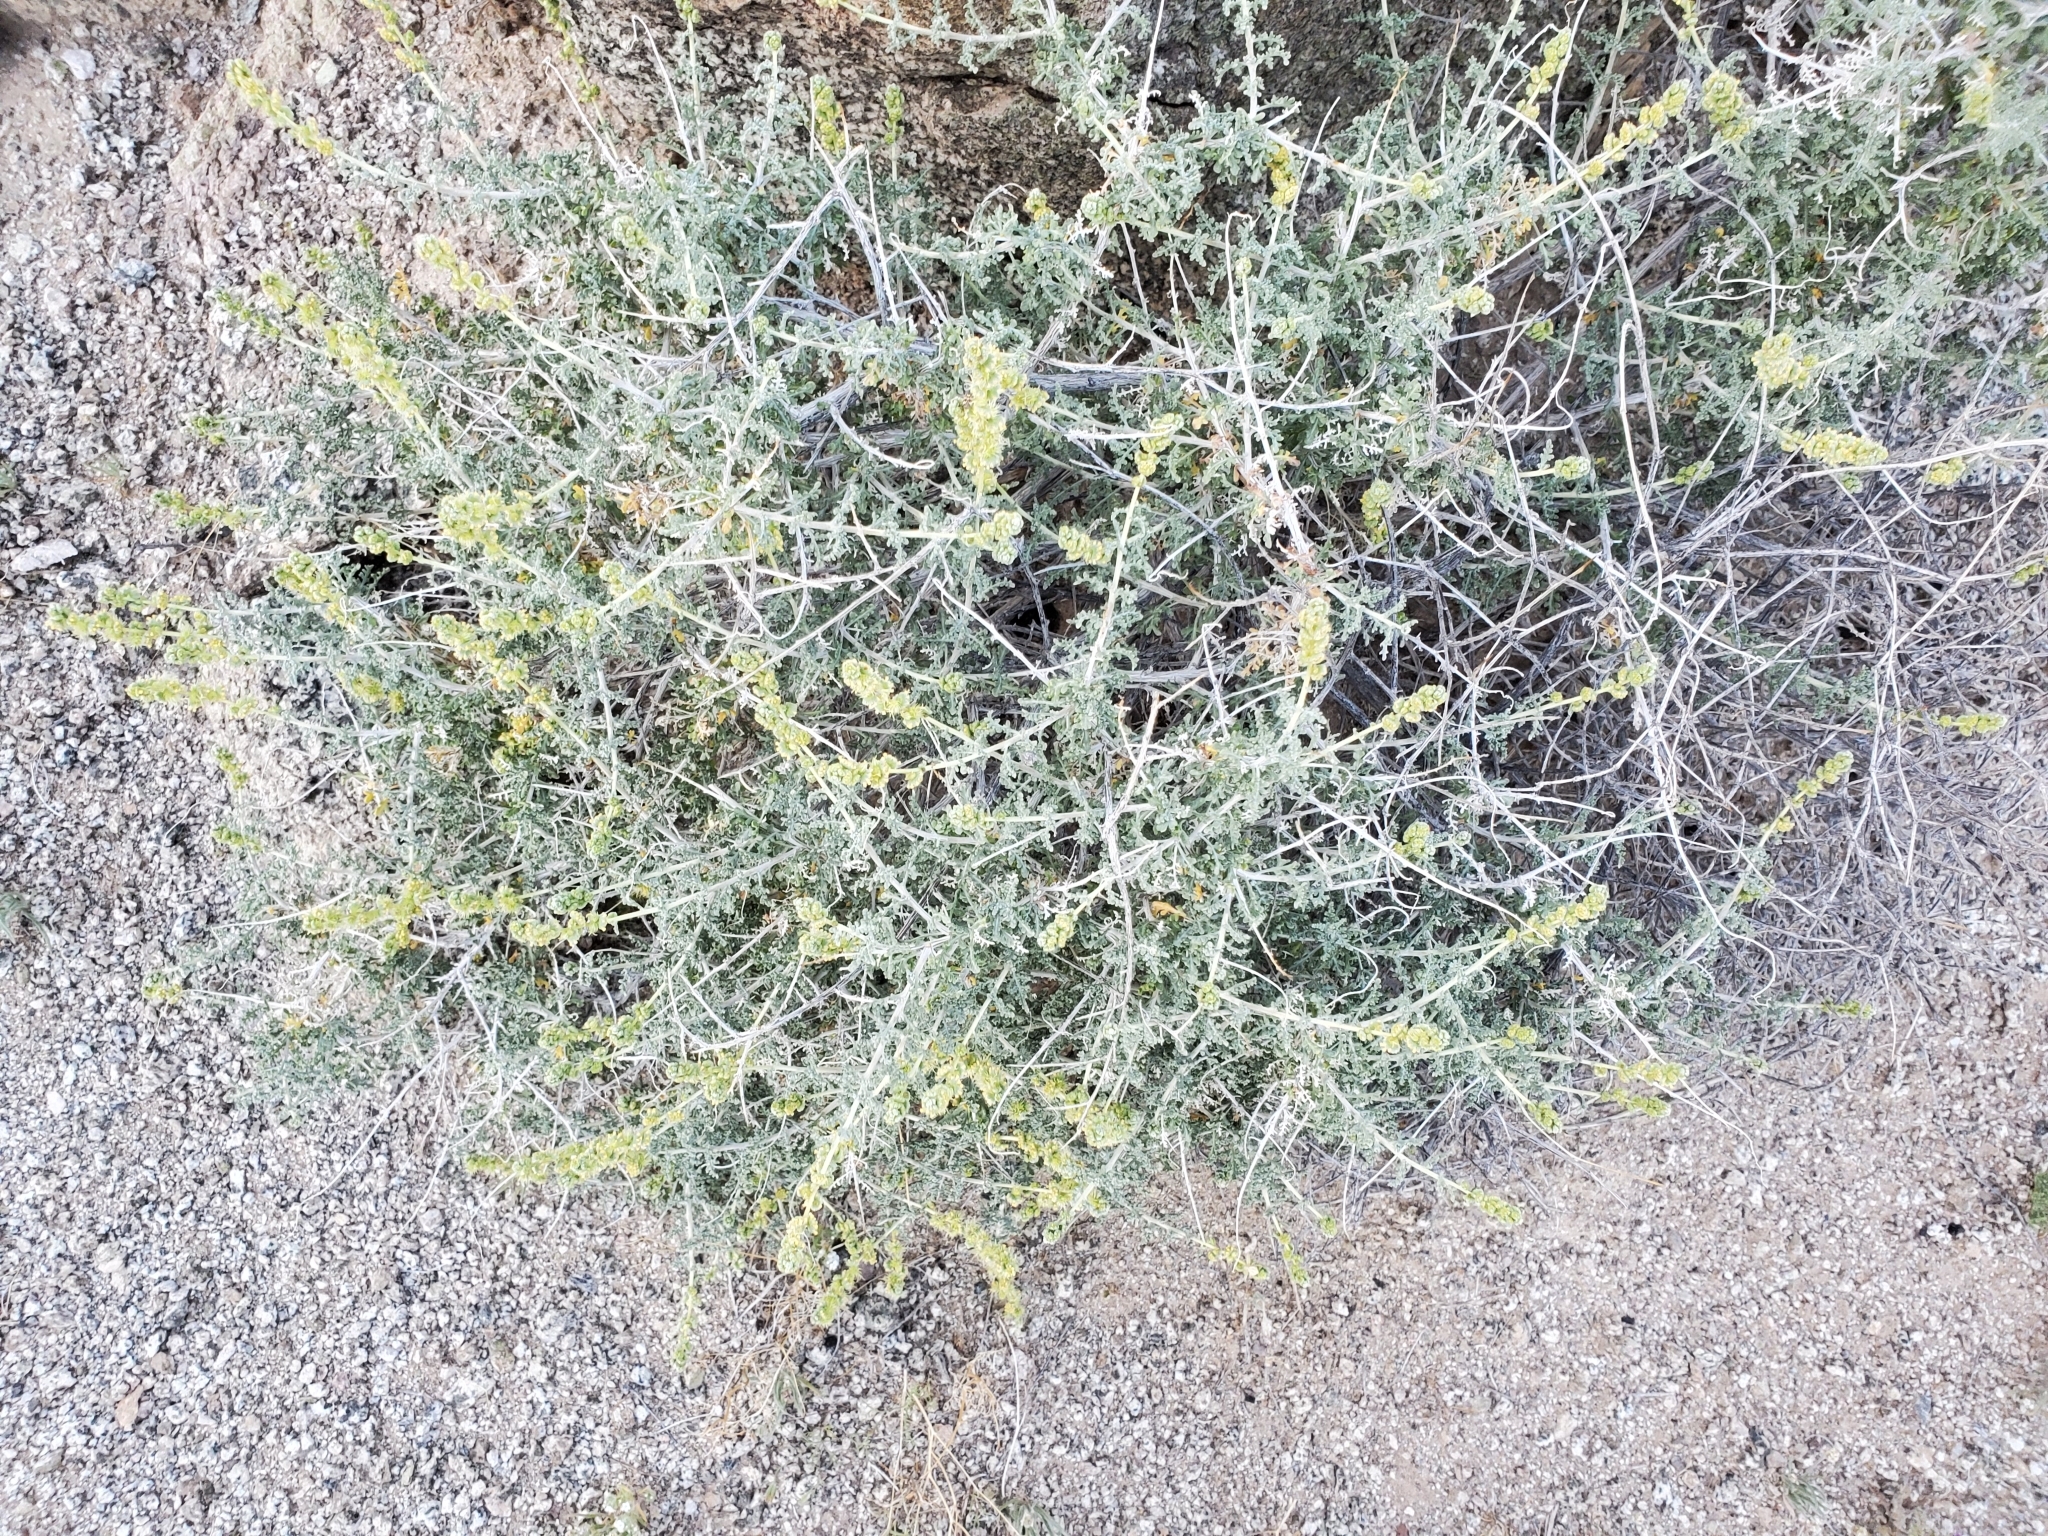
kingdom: Plantae
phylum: Tracheophyta
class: Magnoliopsida
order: Asterales
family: Asteraceae
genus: Ambrosia
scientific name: Ambrosia dumosa
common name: Bur-sage
